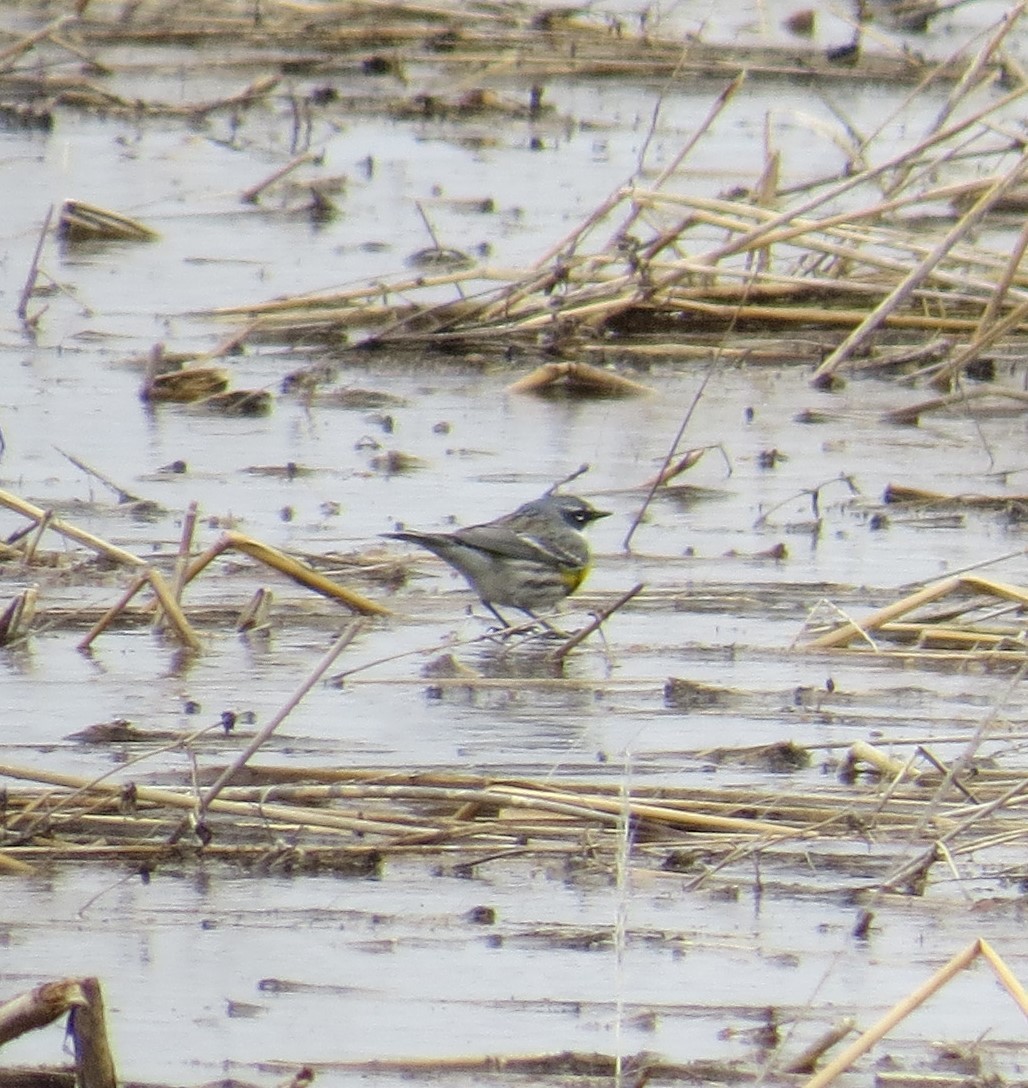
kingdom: Animalia
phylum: Chordata
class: Aves
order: Passeriformes
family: Parulidae
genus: Setophaga
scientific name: Setophaga coronata
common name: Myrtle warbler
